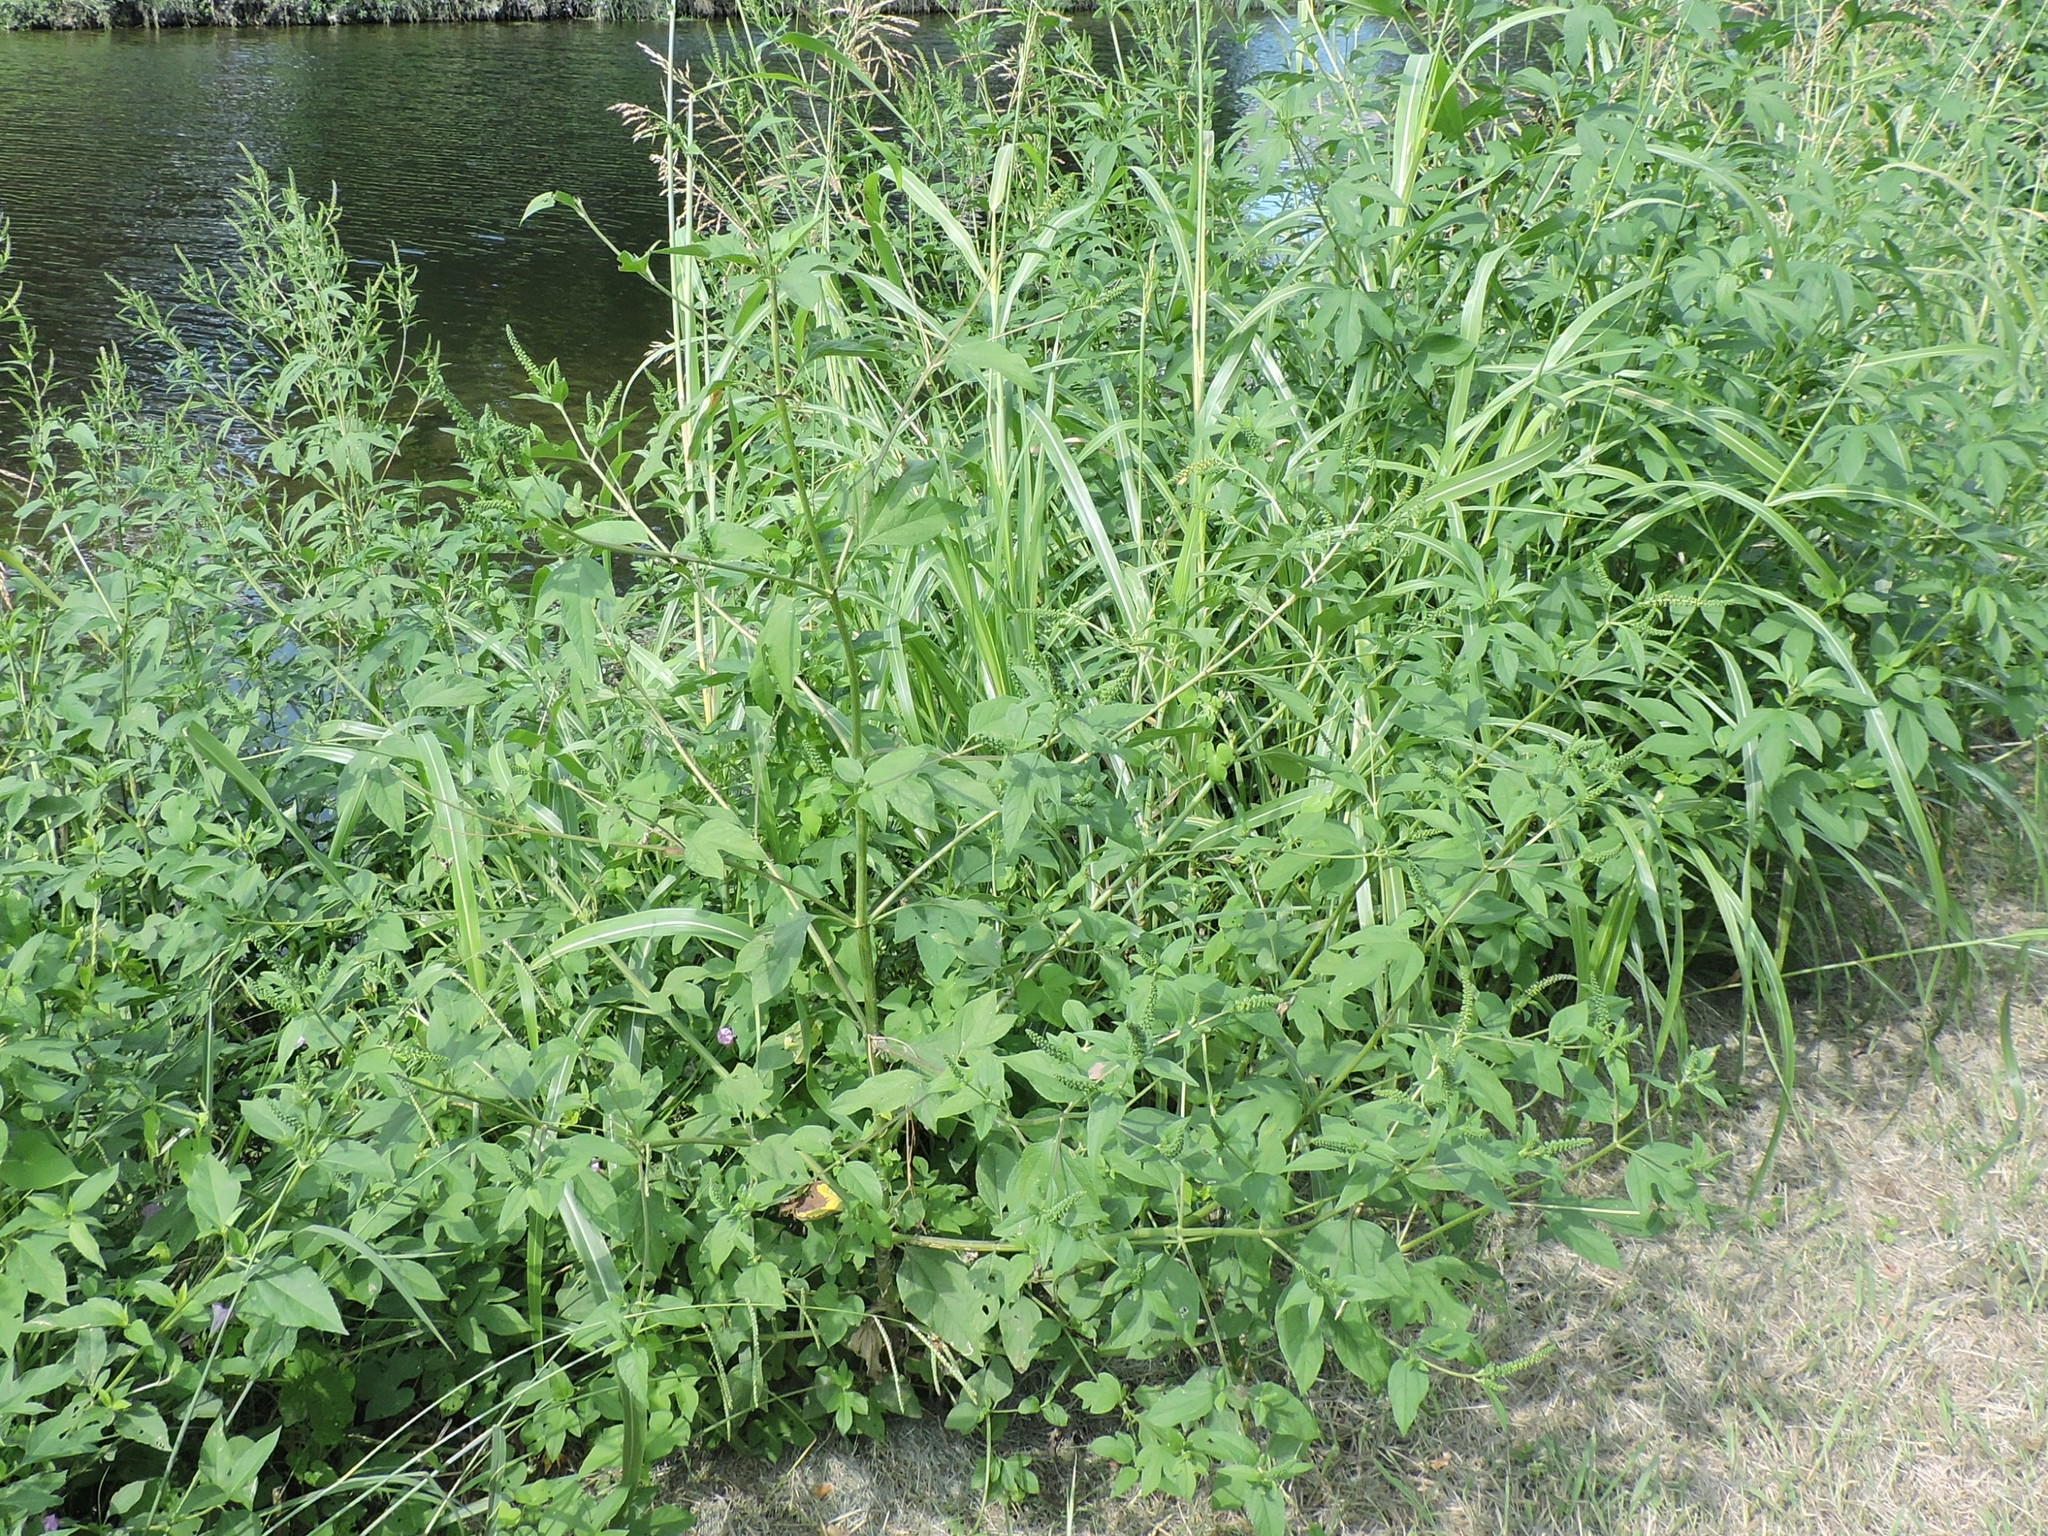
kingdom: Plantae
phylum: Tracheophyta
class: Magnoliopsida
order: Asterales
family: Asteraceae
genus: Ambrosia
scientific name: Ambrosia trifida
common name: Giant ragweed
